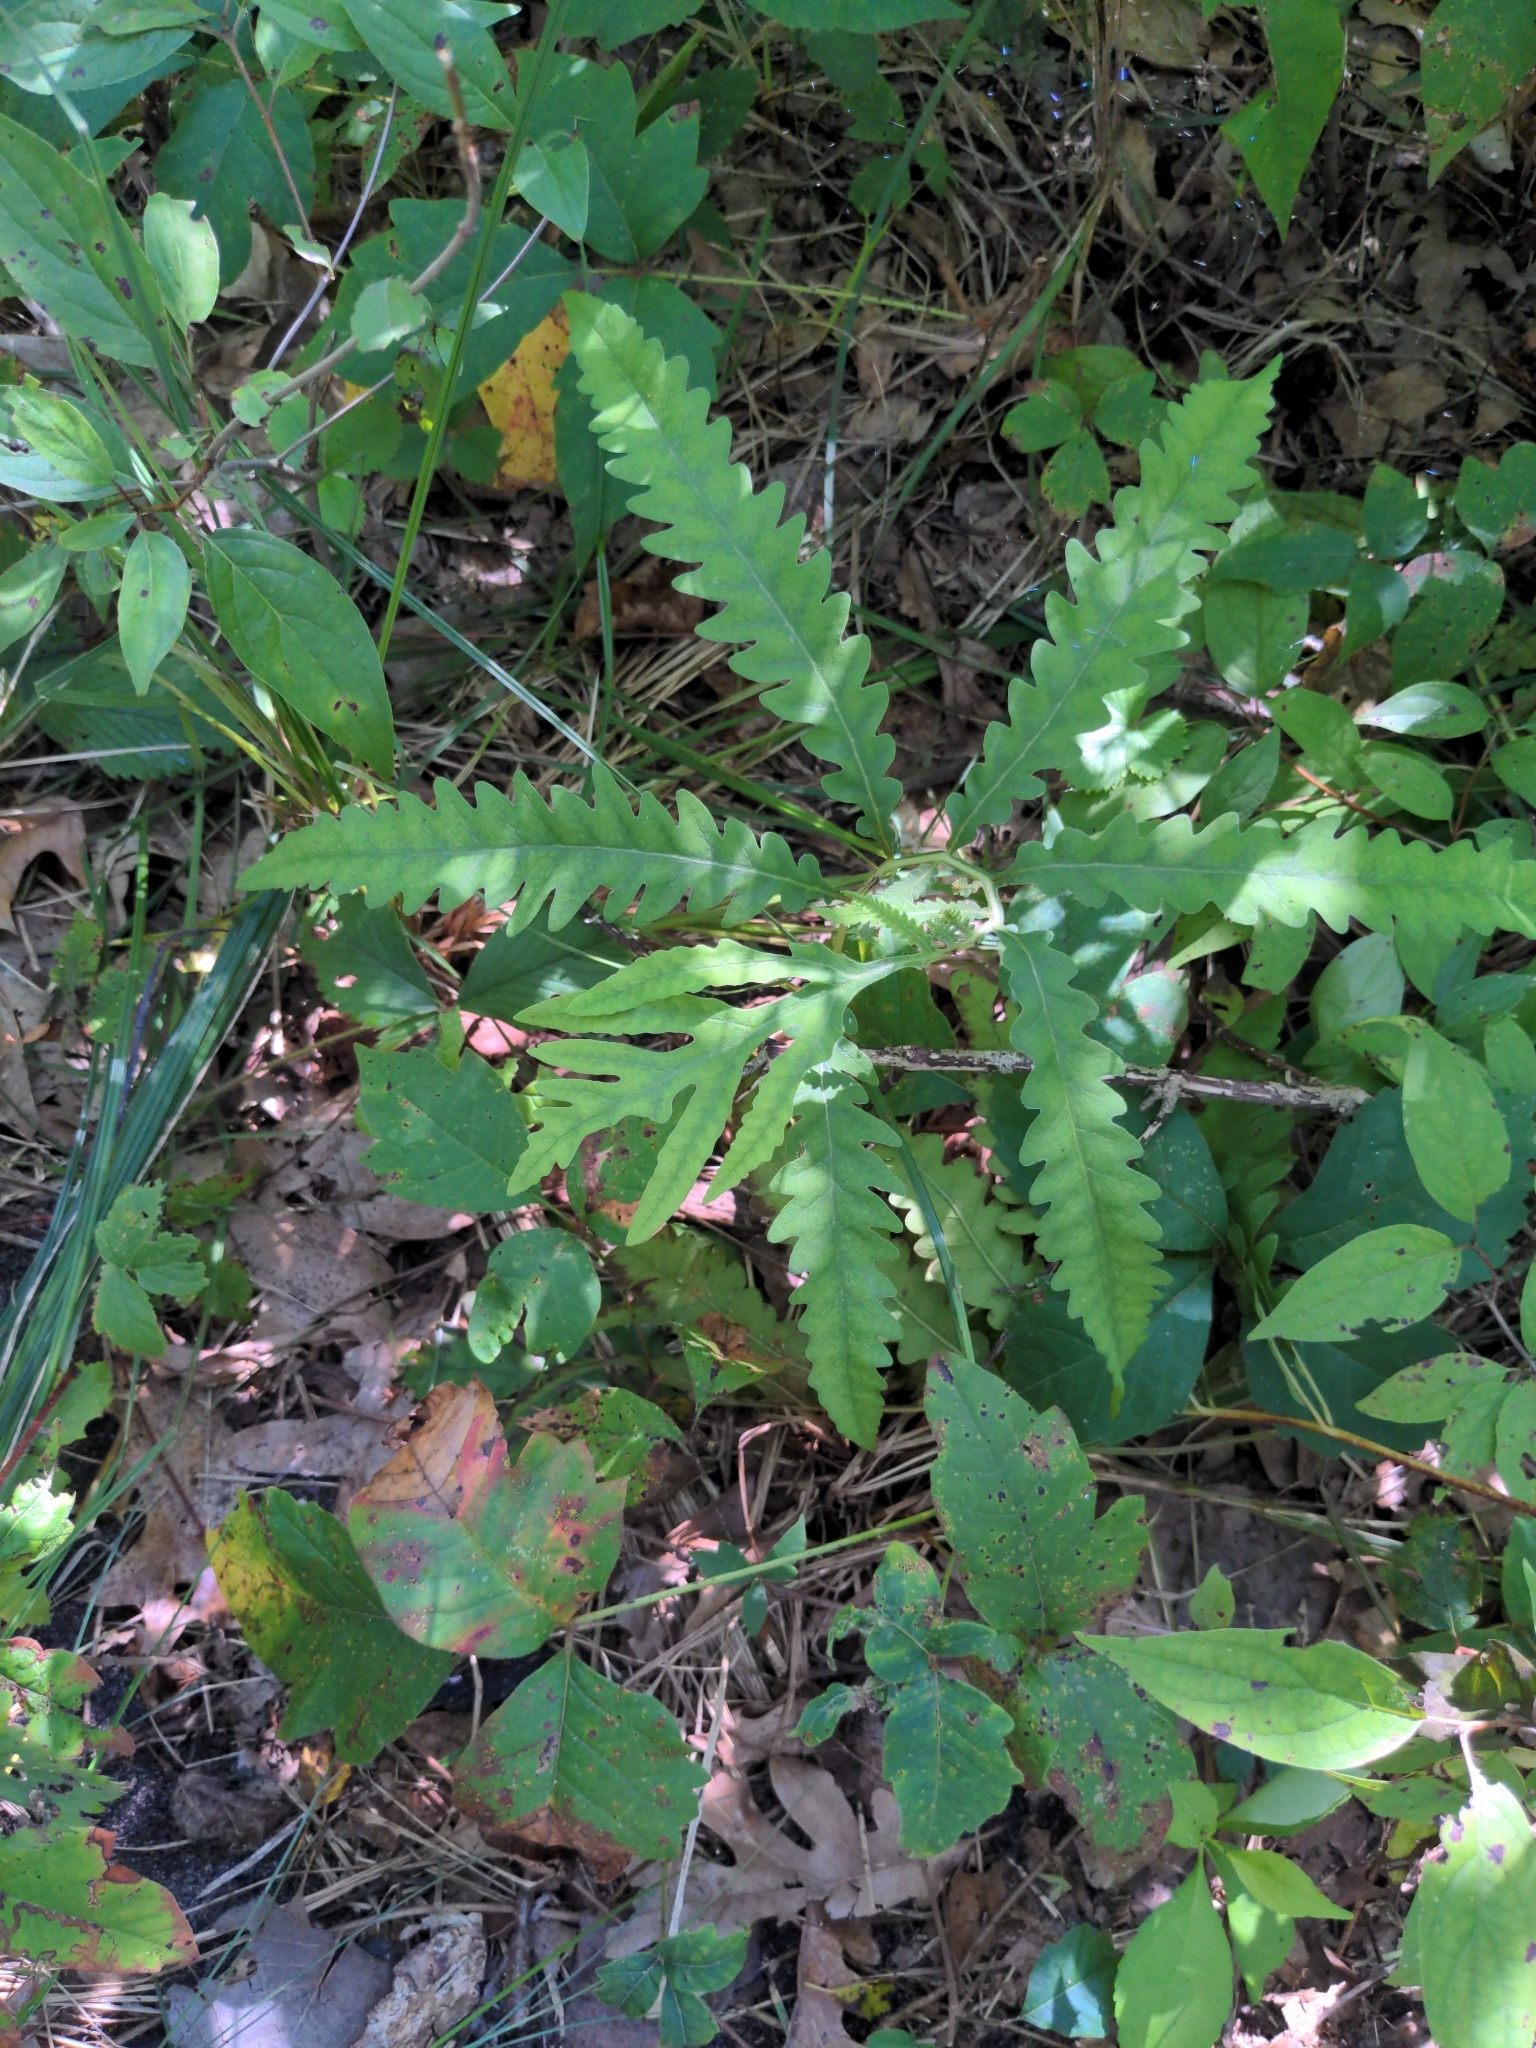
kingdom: Plantae
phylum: Tracheophyta
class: Polypodiopsida
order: Polypodiales
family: Onocleaceae
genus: Onoclea
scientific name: Onoclea sensibilis
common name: Sensitive fern
